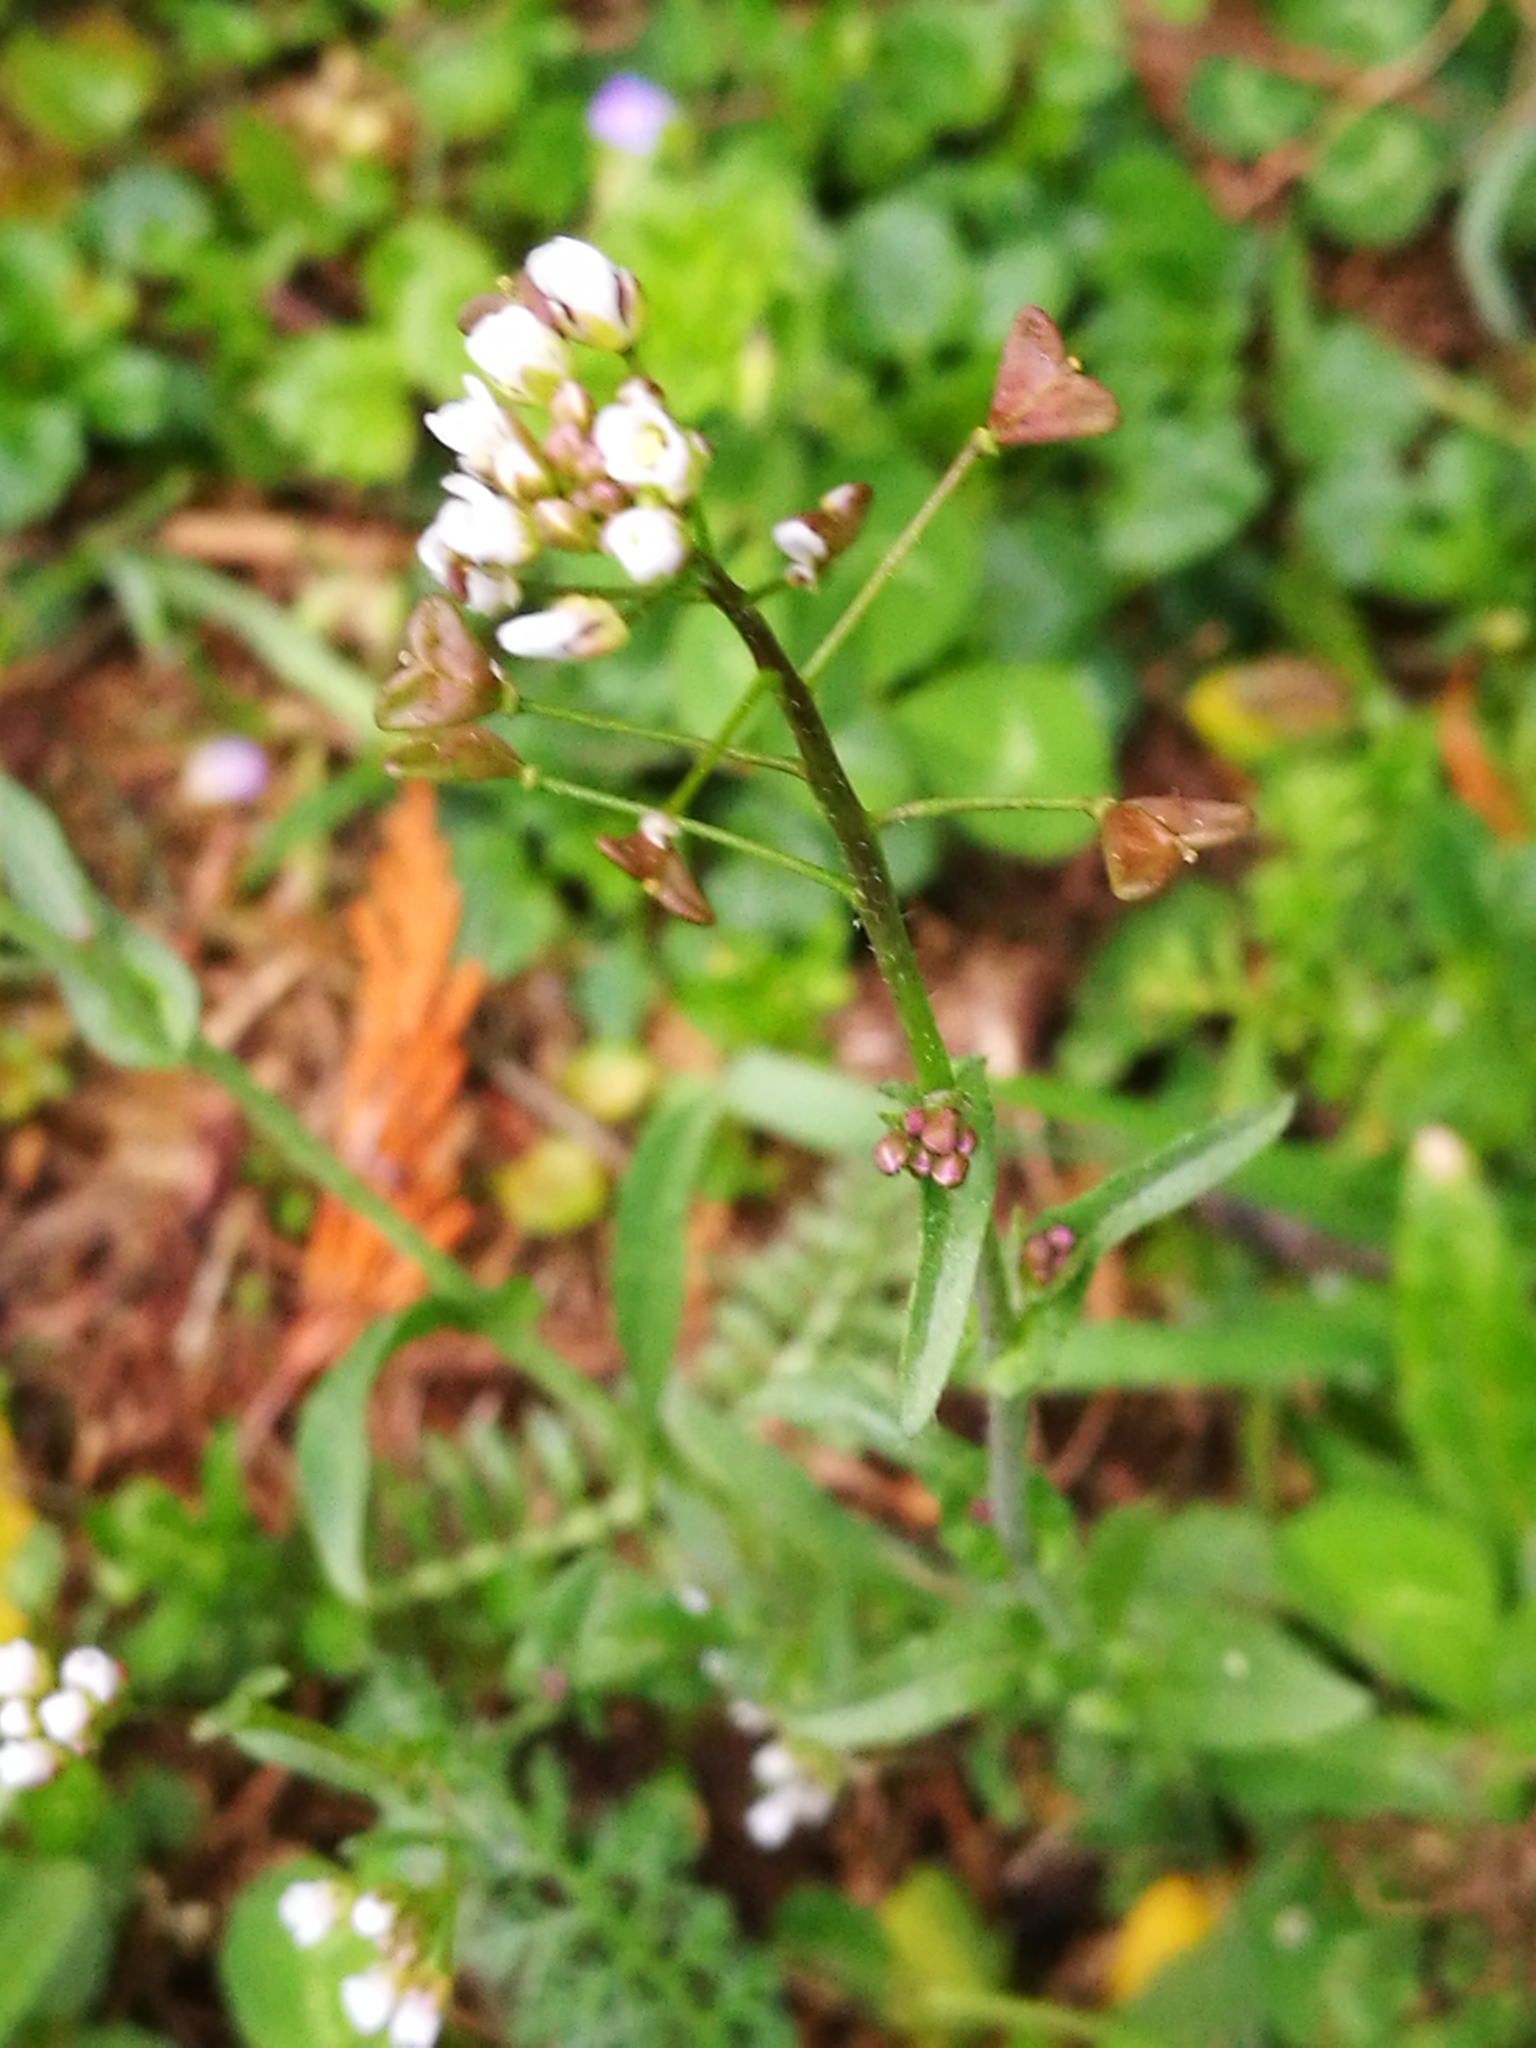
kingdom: Plantae
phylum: Tracheophyta
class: Magnoliopsida
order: Brassicales
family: Brassicaceae
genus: Capsella
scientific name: Capsella bursa-pastoris
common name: Shepherd's purse
